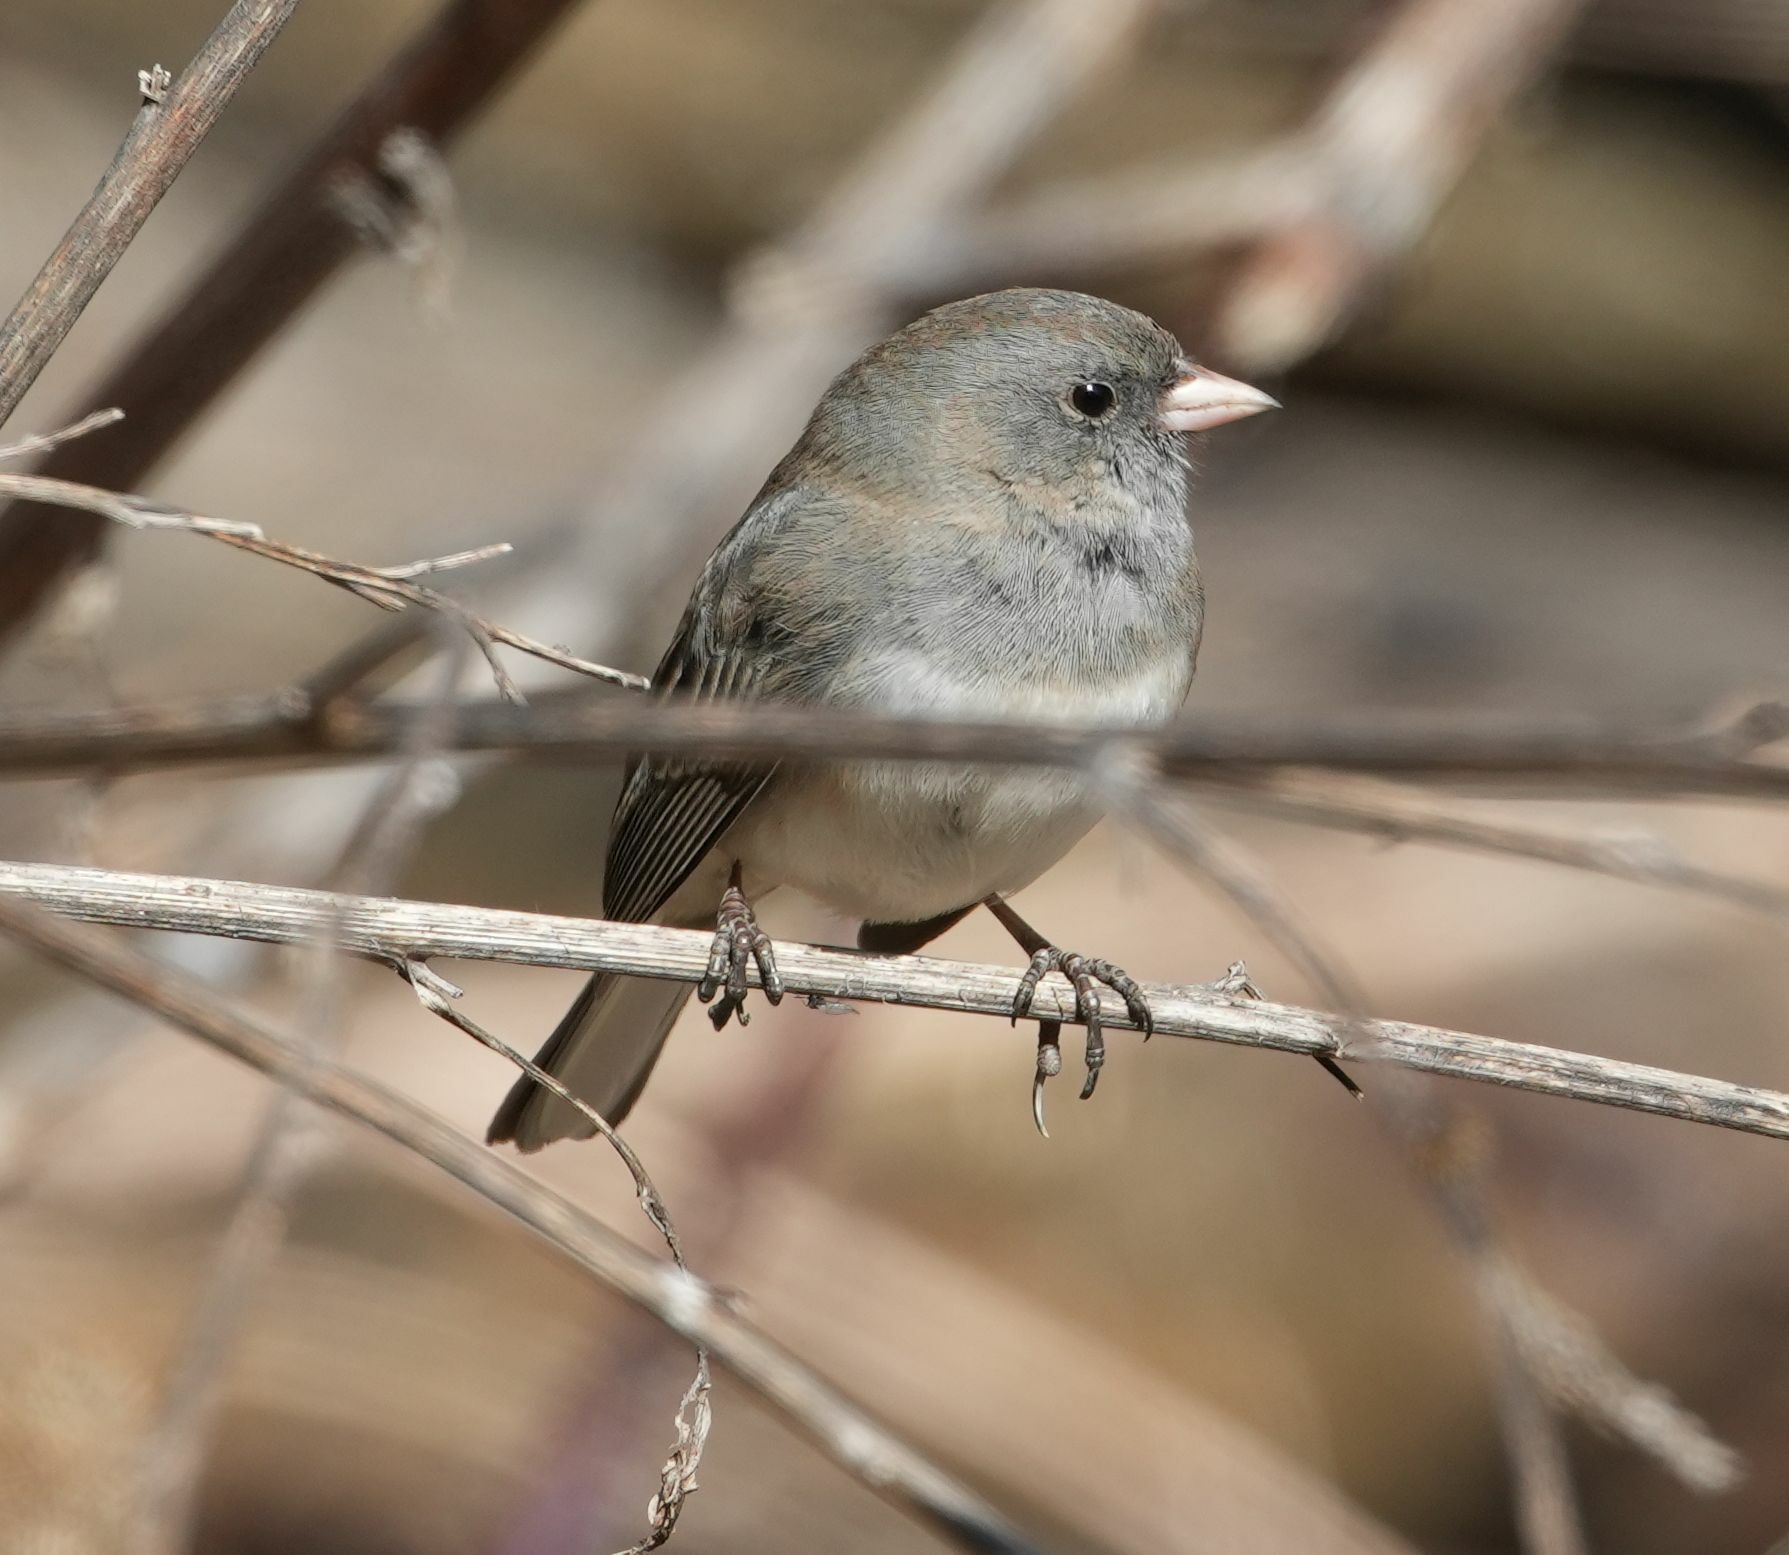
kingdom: Animalia
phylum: Chordata
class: Aves
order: Passeriformes
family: Passerellidae
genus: Junco
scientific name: Junco hyemalis
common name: Dark-eyed junco
